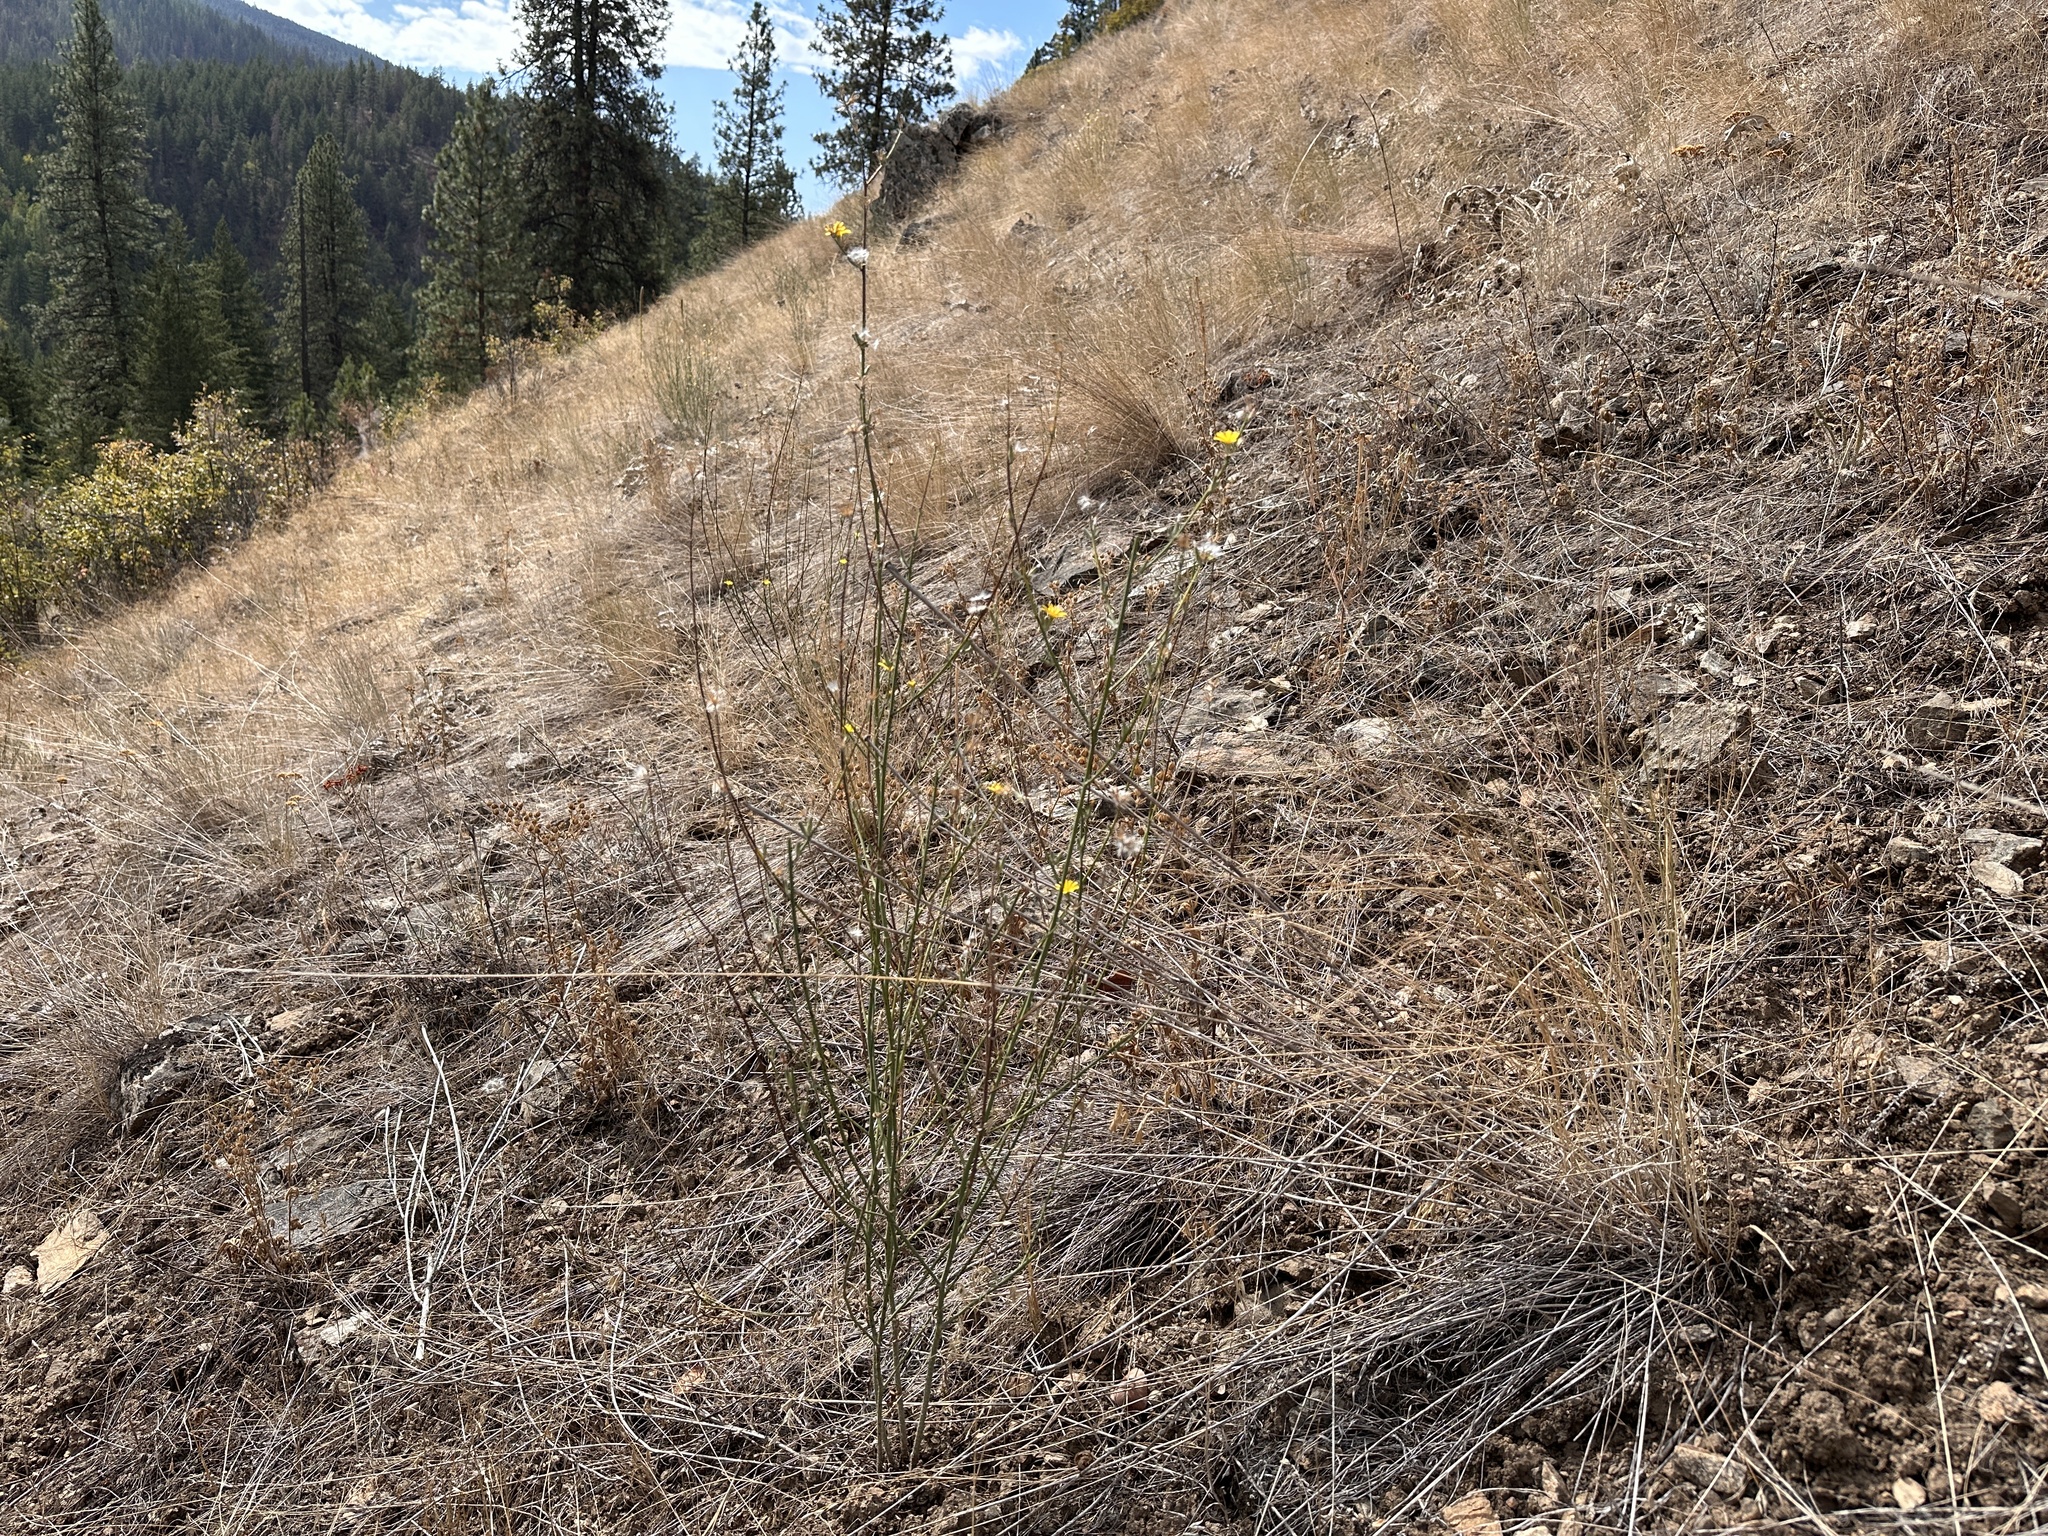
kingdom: Plantae
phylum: Tracheophyta
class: Magnoliopsida
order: Asterales
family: Asteraceae
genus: Chondrilla
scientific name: Chondrilla juncea
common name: Skeleton weed
